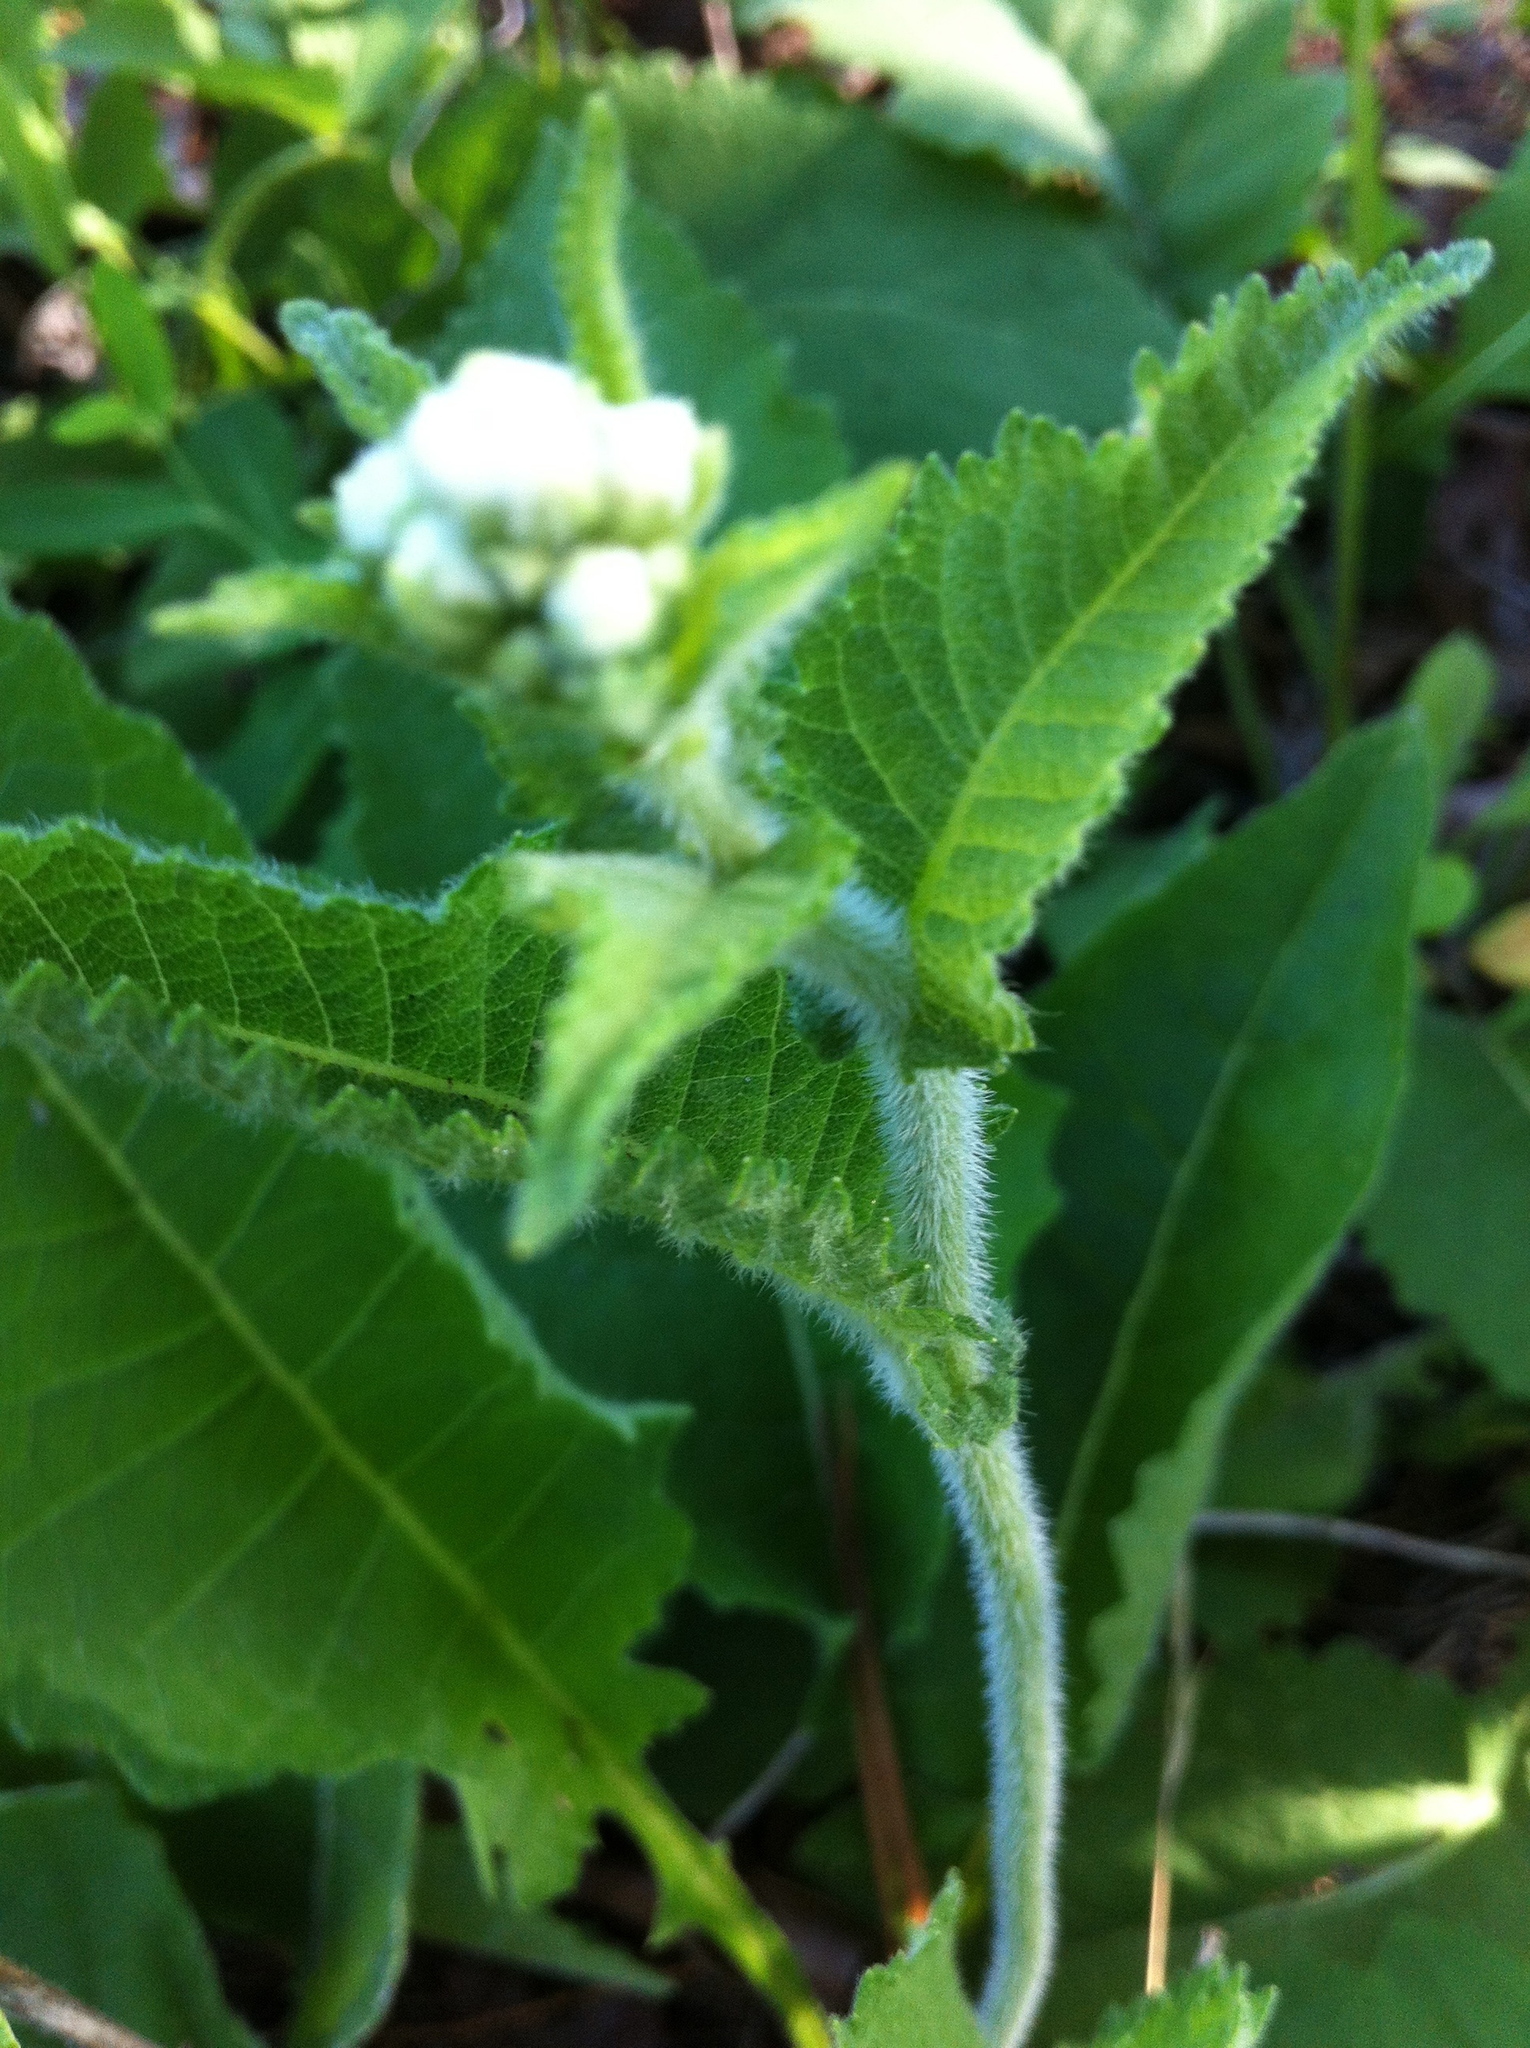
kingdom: Plantae
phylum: Tracheophyta
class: Magnoliopsida
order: Asterales
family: Asteraceae
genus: Parthenium
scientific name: Parthenium auriculatum
